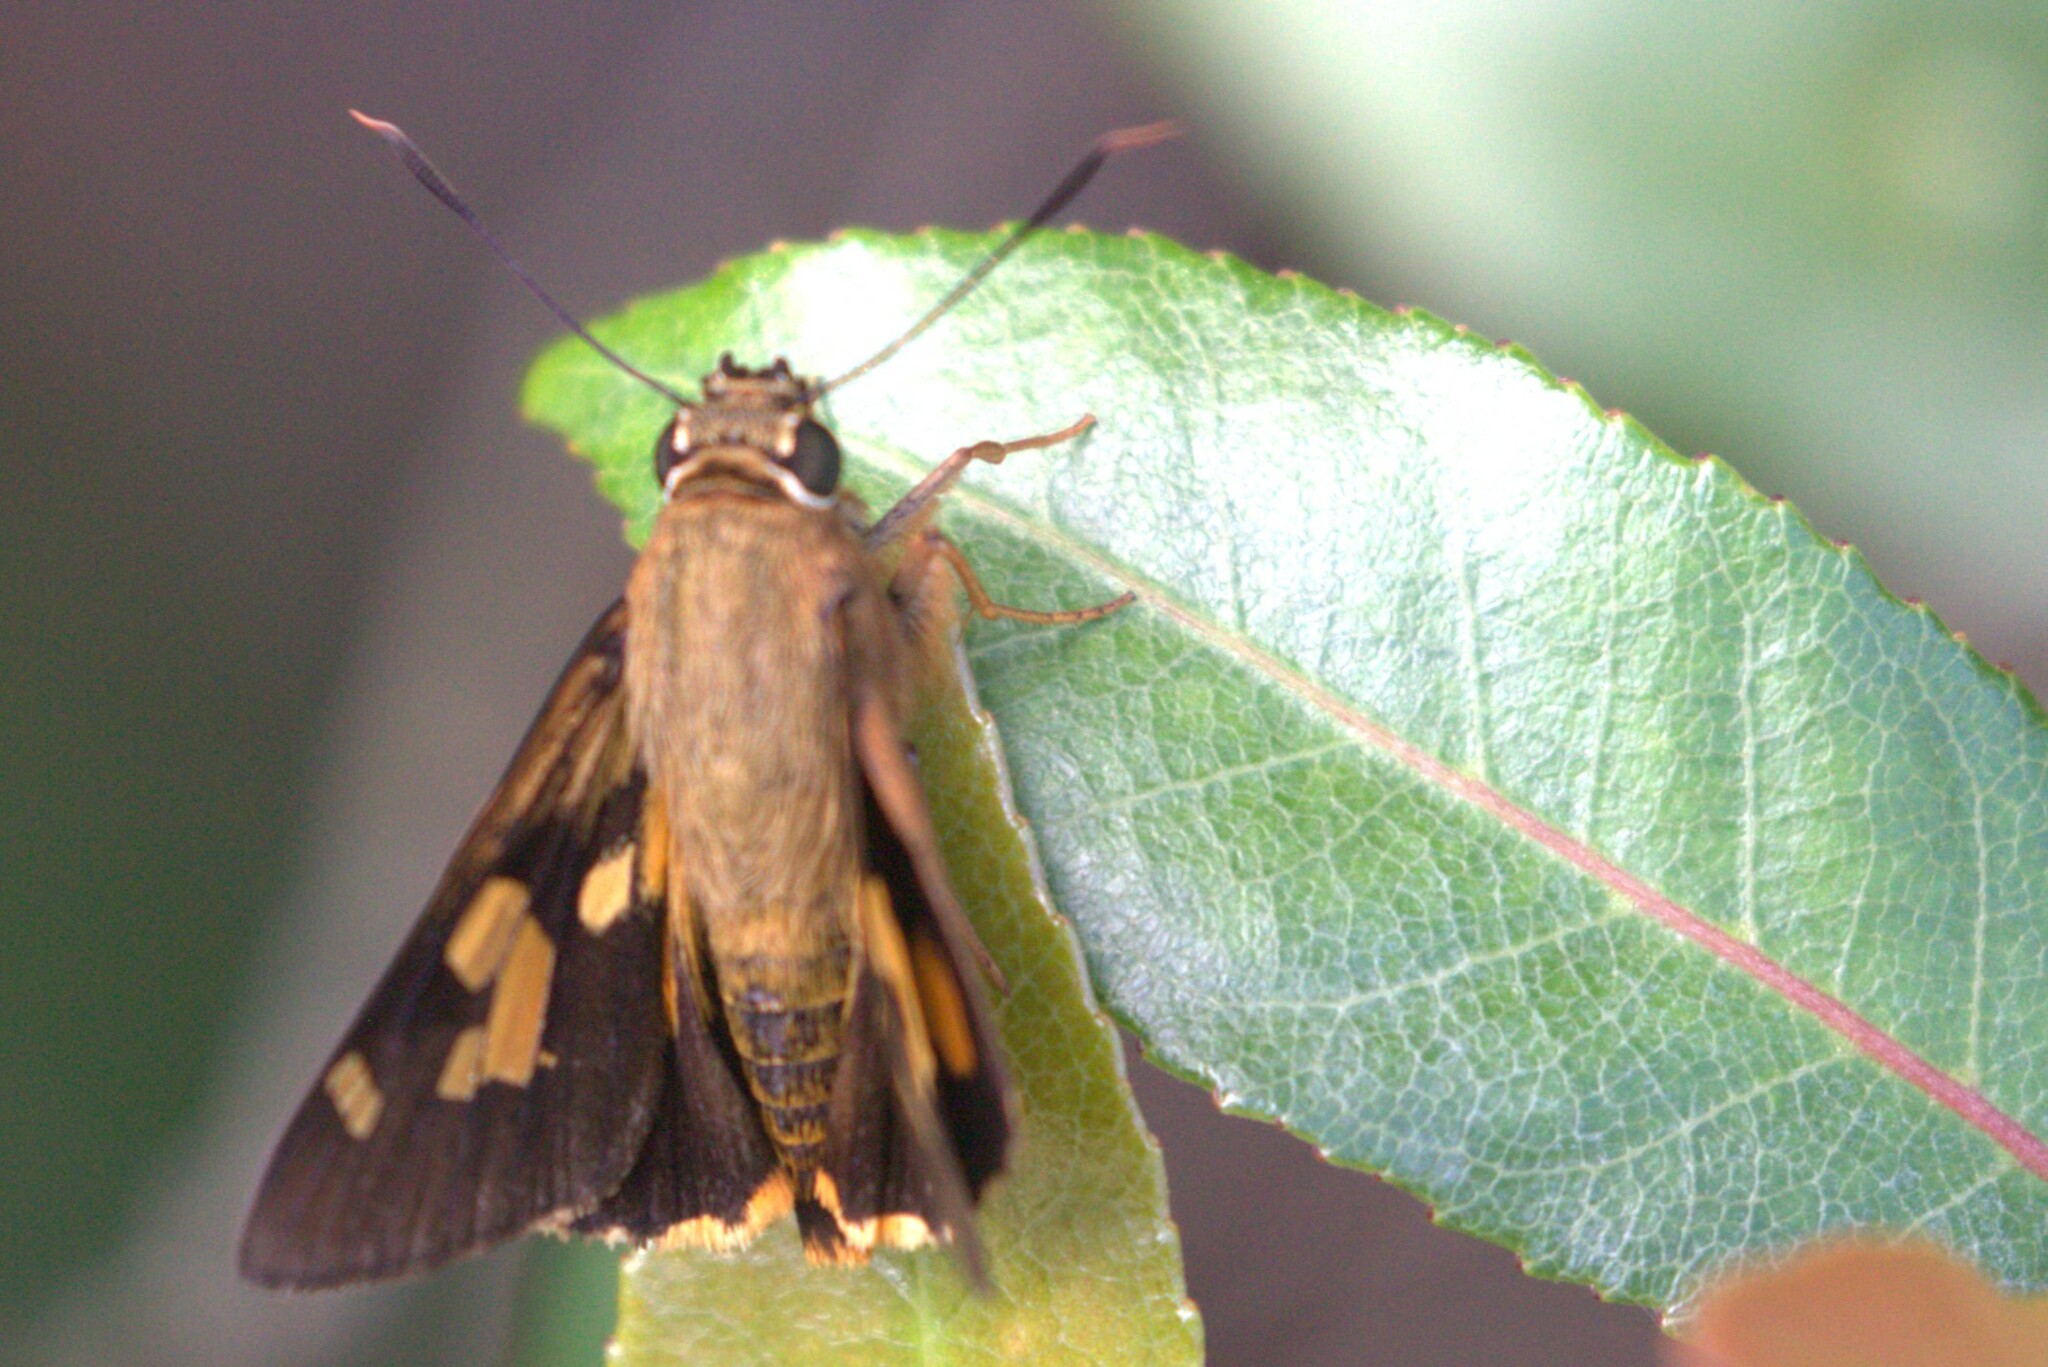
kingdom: Animalia
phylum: Arthropoda
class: Insecta
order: Lepidoptera
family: Hesperiidae
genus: Trapezites
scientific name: Trapezites symmomus
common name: Splendid ochre
